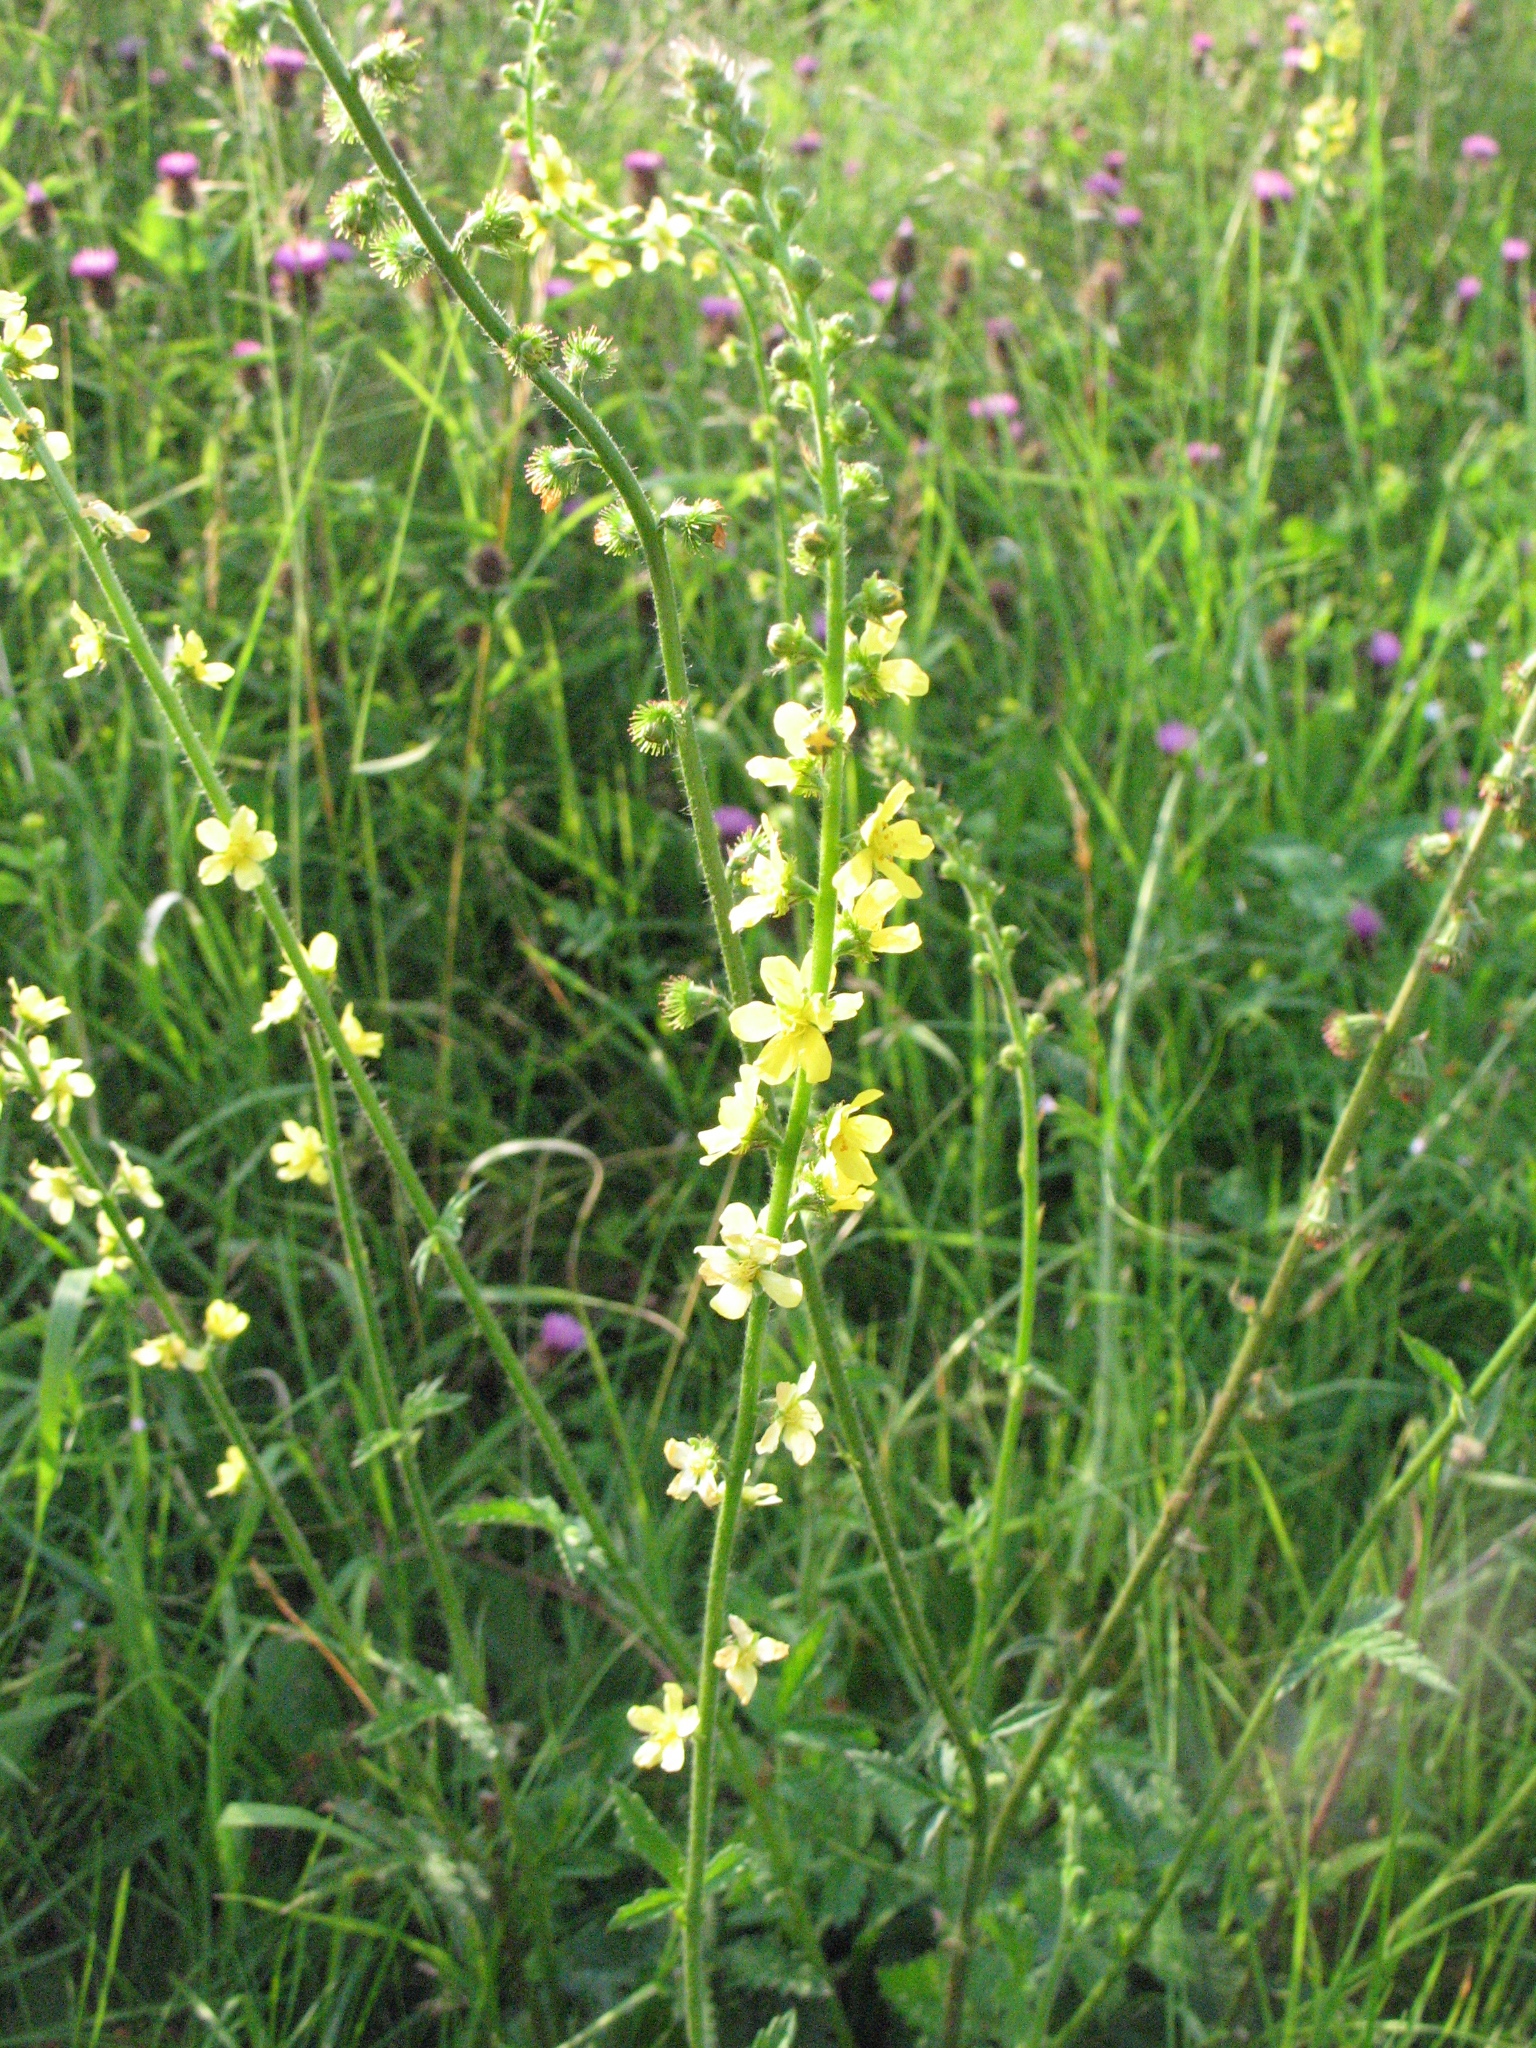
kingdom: Plantae
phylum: Tracheophyta
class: Magnoliopsida
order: Rosales
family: Rosaceae
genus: Agrimonia
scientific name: Agrimonia eupatoria
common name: Agrimony
